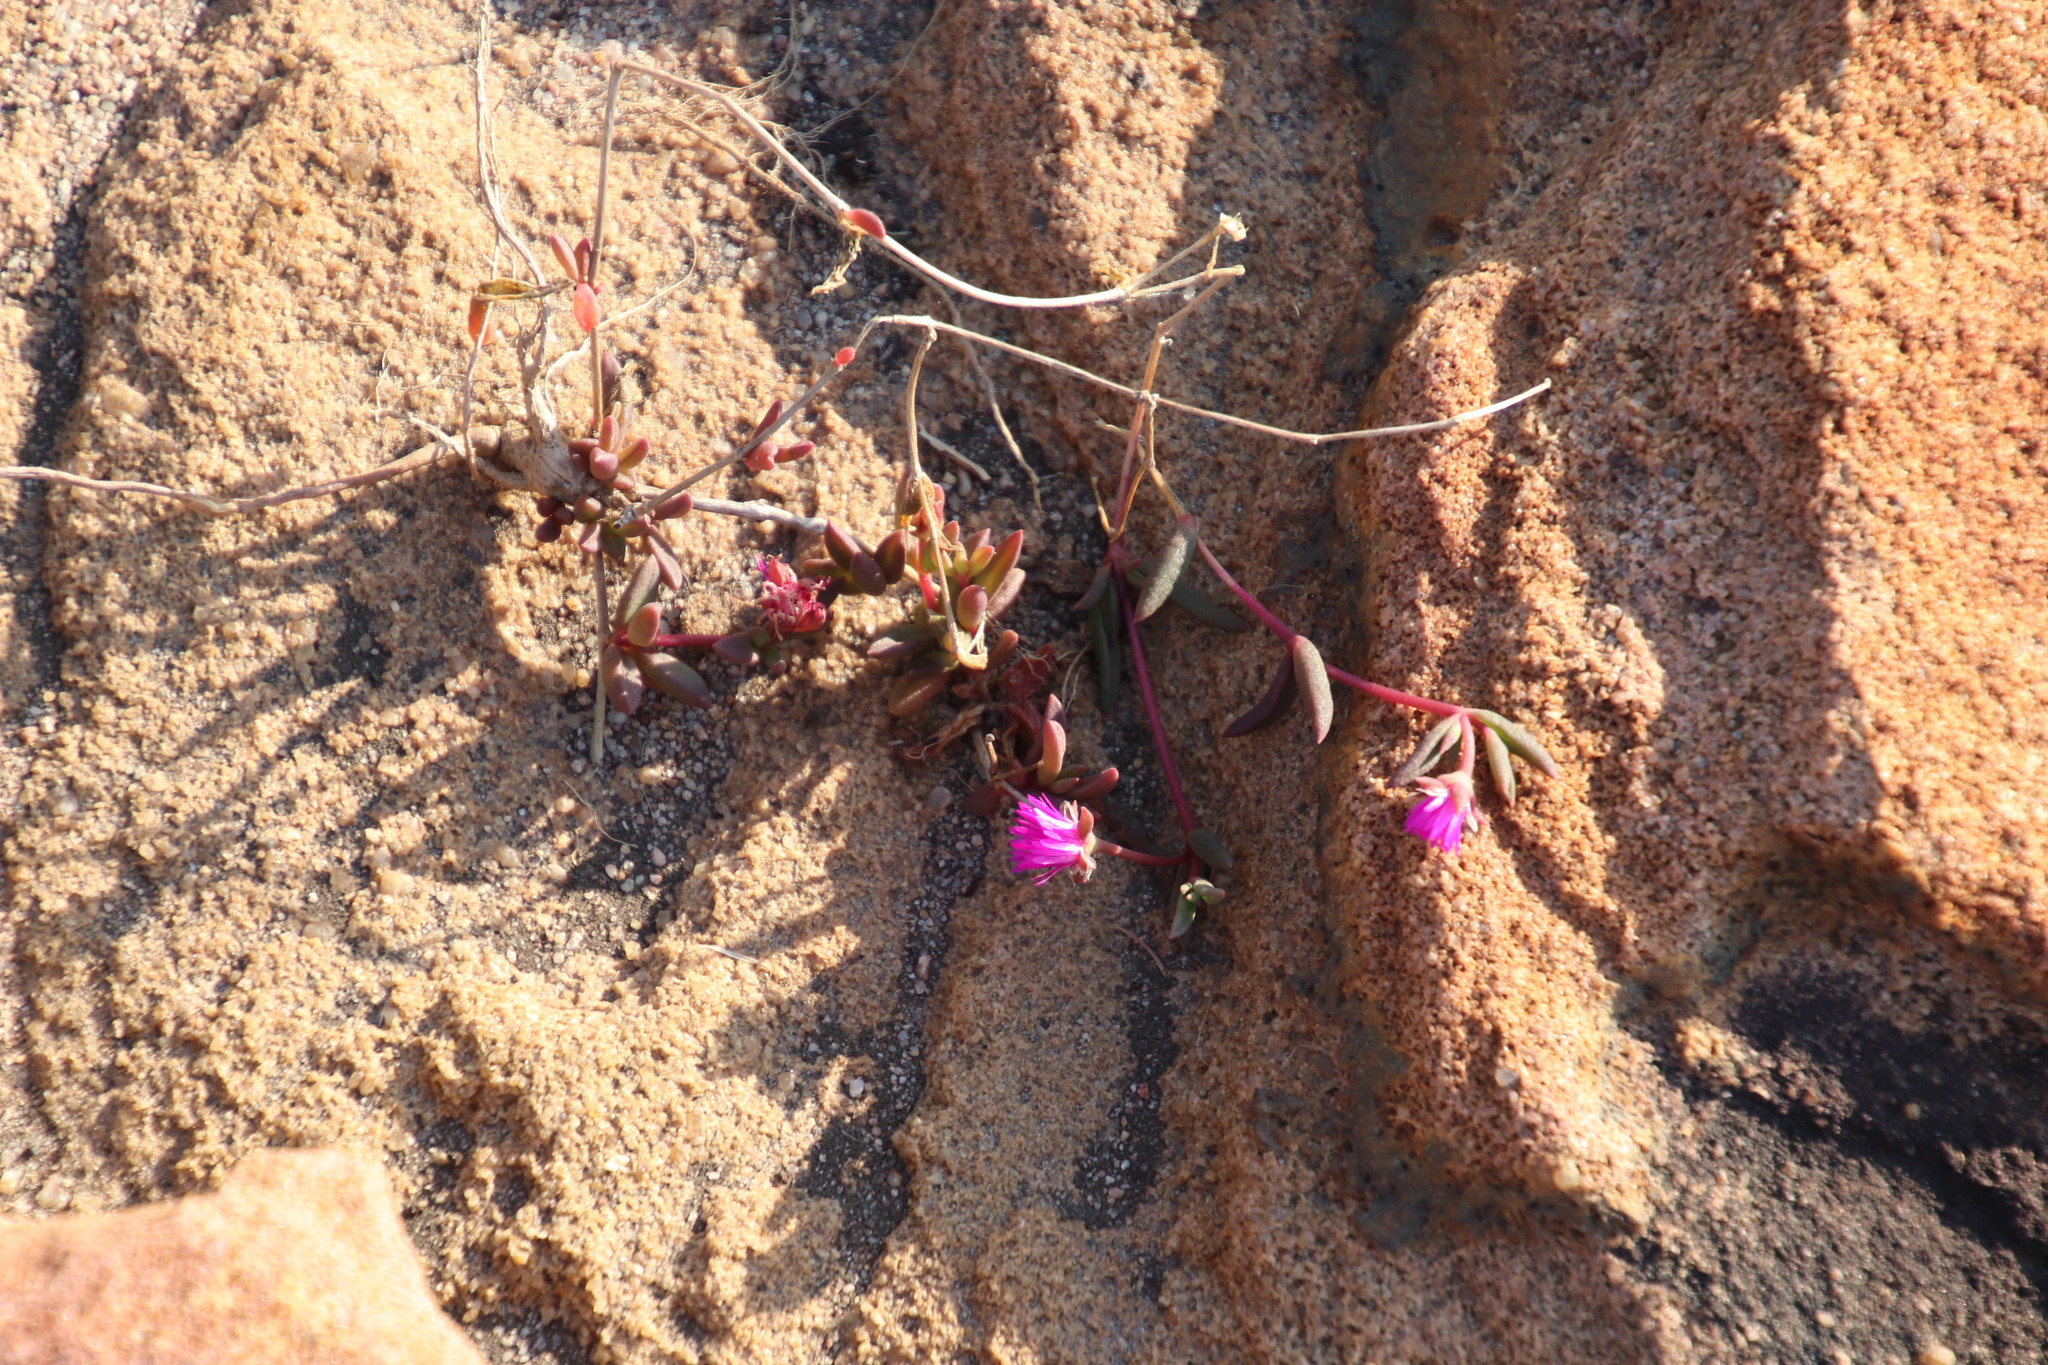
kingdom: Plantae
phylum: Tracheophyta
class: Magnoliopsida
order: Caryophyllales
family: Aizoaceae
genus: Delosperma
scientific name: Delosperma repens
